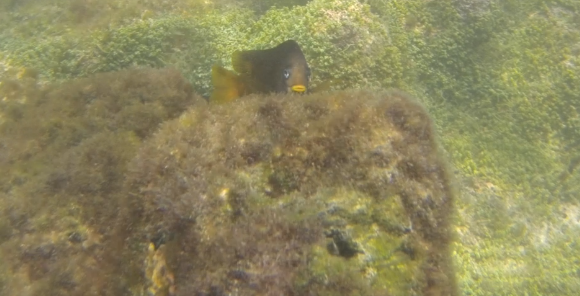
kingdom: Animalia
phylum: Chordata
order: Perciformes
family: Pomacentridae
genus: Stegastes
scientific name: Stegastes arcifrons
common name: Galapagos gregory
